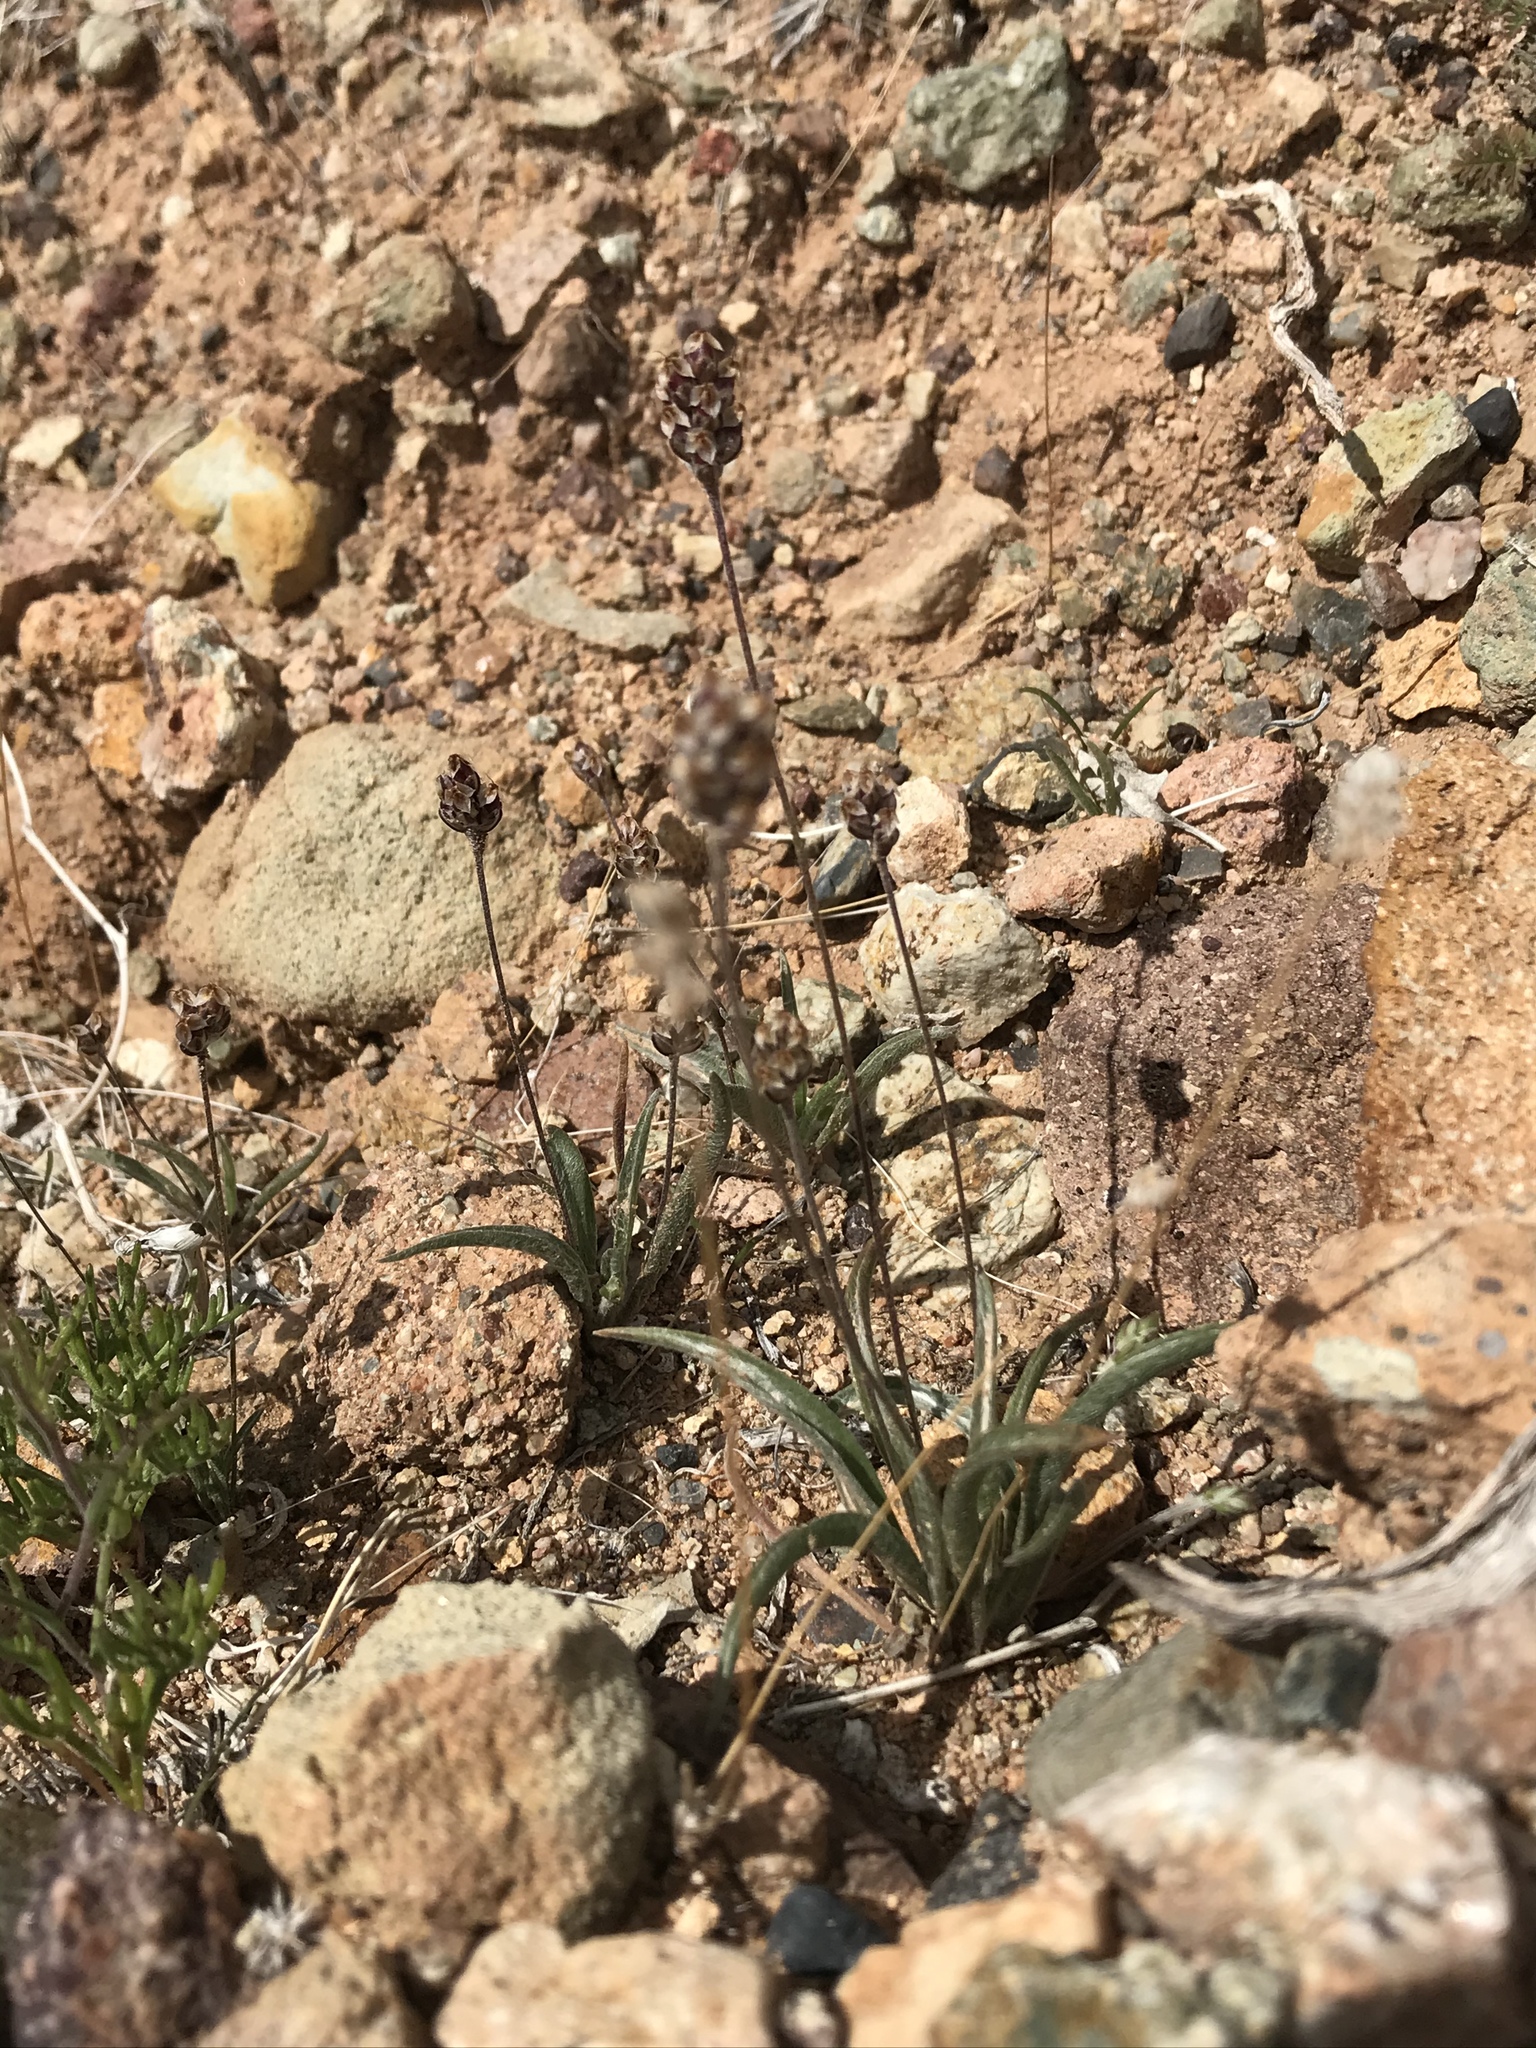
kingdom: Plantae
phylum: Tracheophyta
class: Magnoliopsida
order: Lamiales
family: Plantaginaceae
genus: Plantago
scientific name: Plantago ovata
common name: Blond plantain
